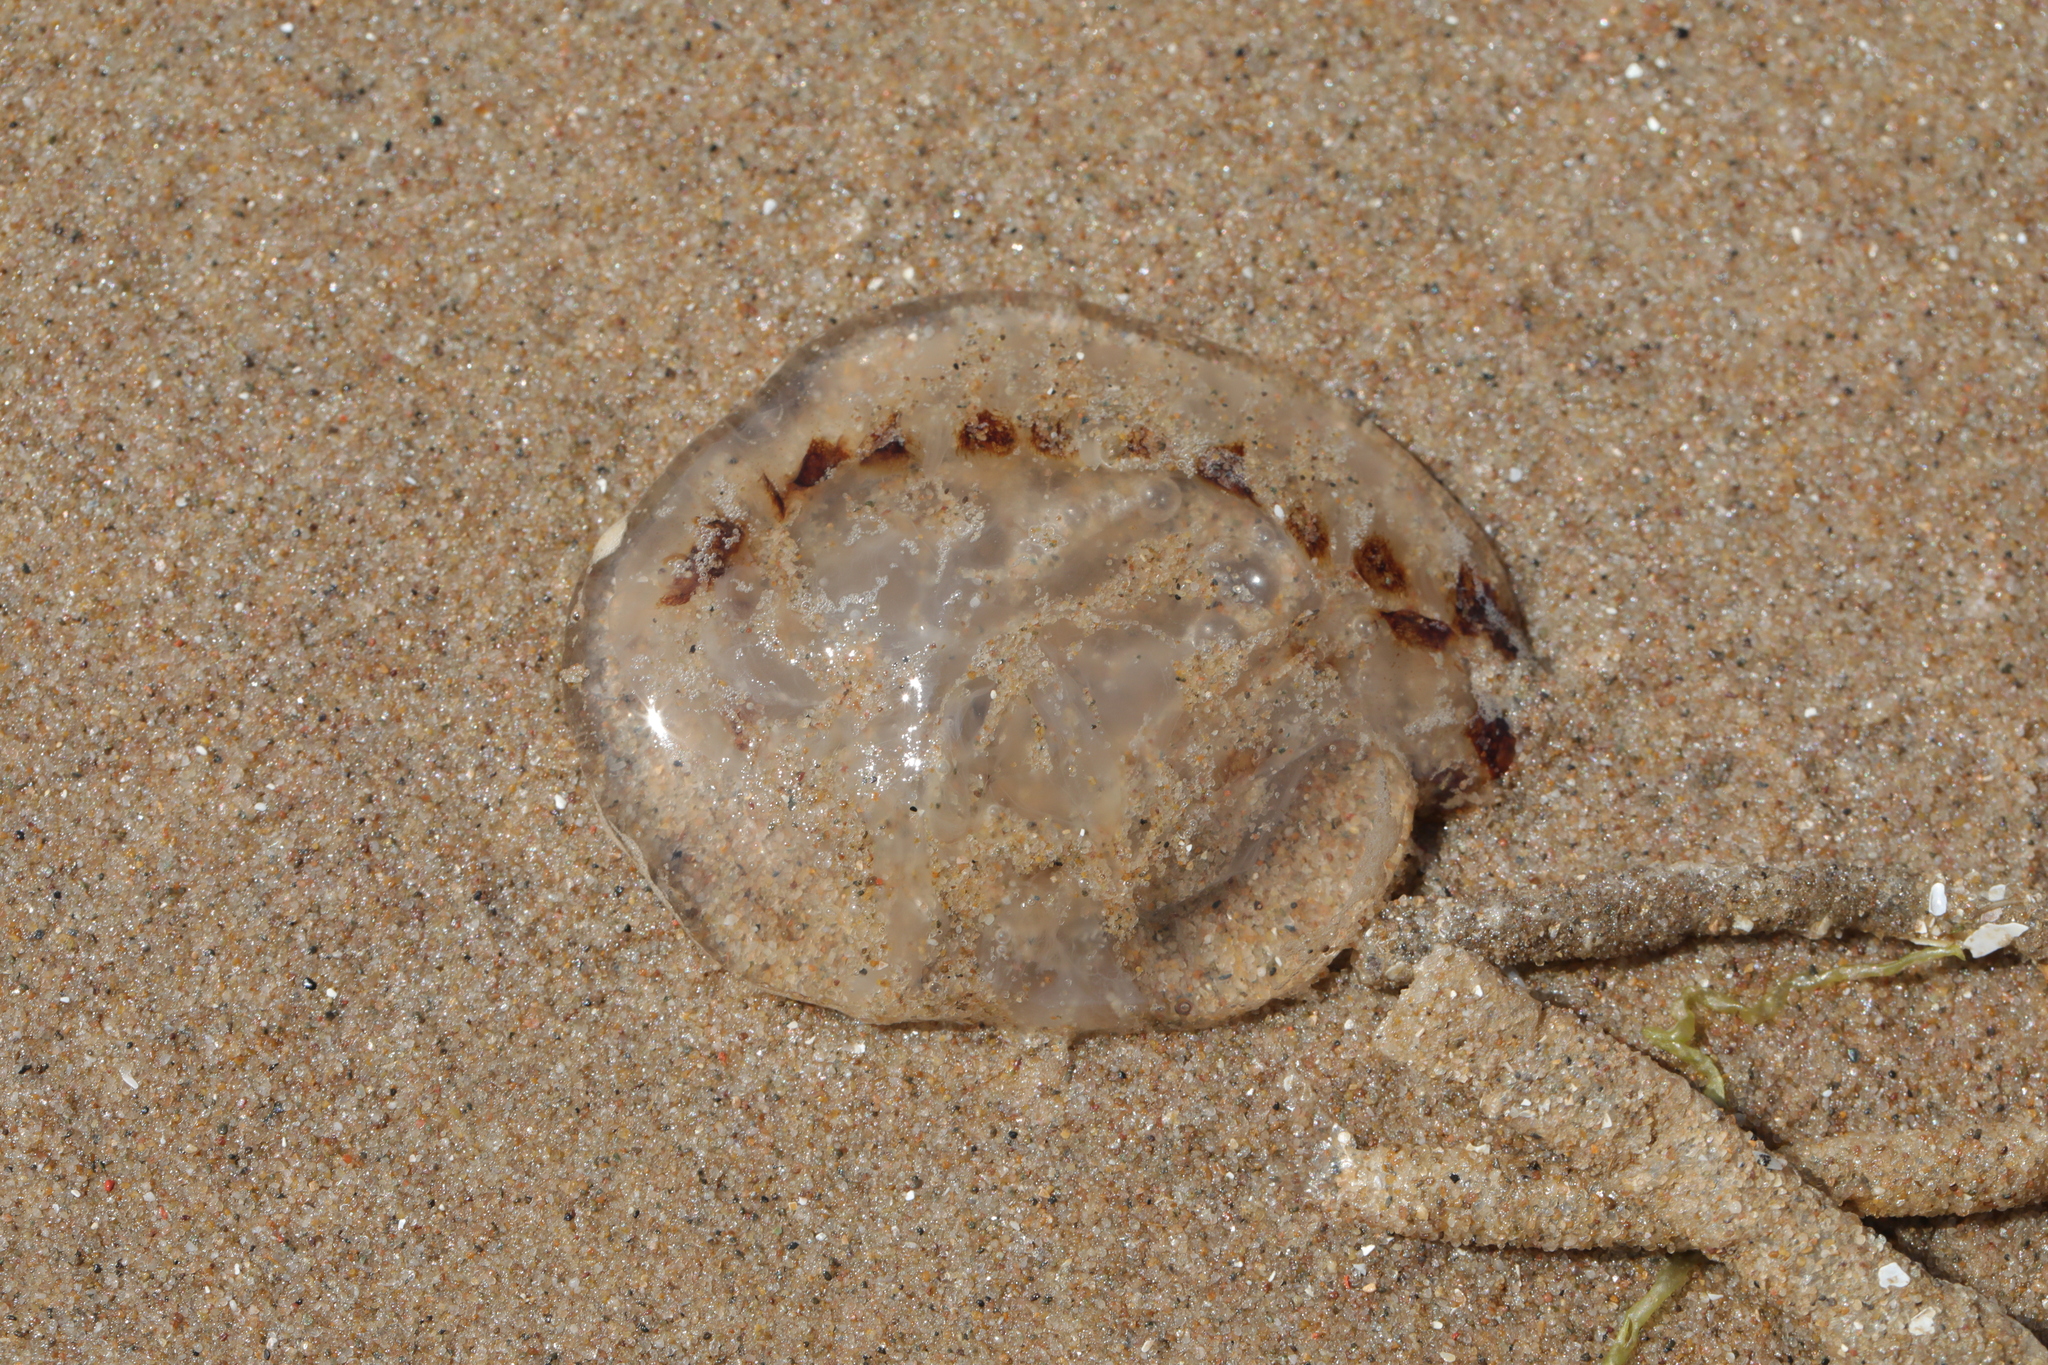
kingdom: Animalia
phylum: Cnidaria
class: Scyphozoa
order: Semaeostomeae
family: Pelagiidae
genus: Chrysaora
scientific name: Chrysaora hysoscella
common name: Compass jellyfish
